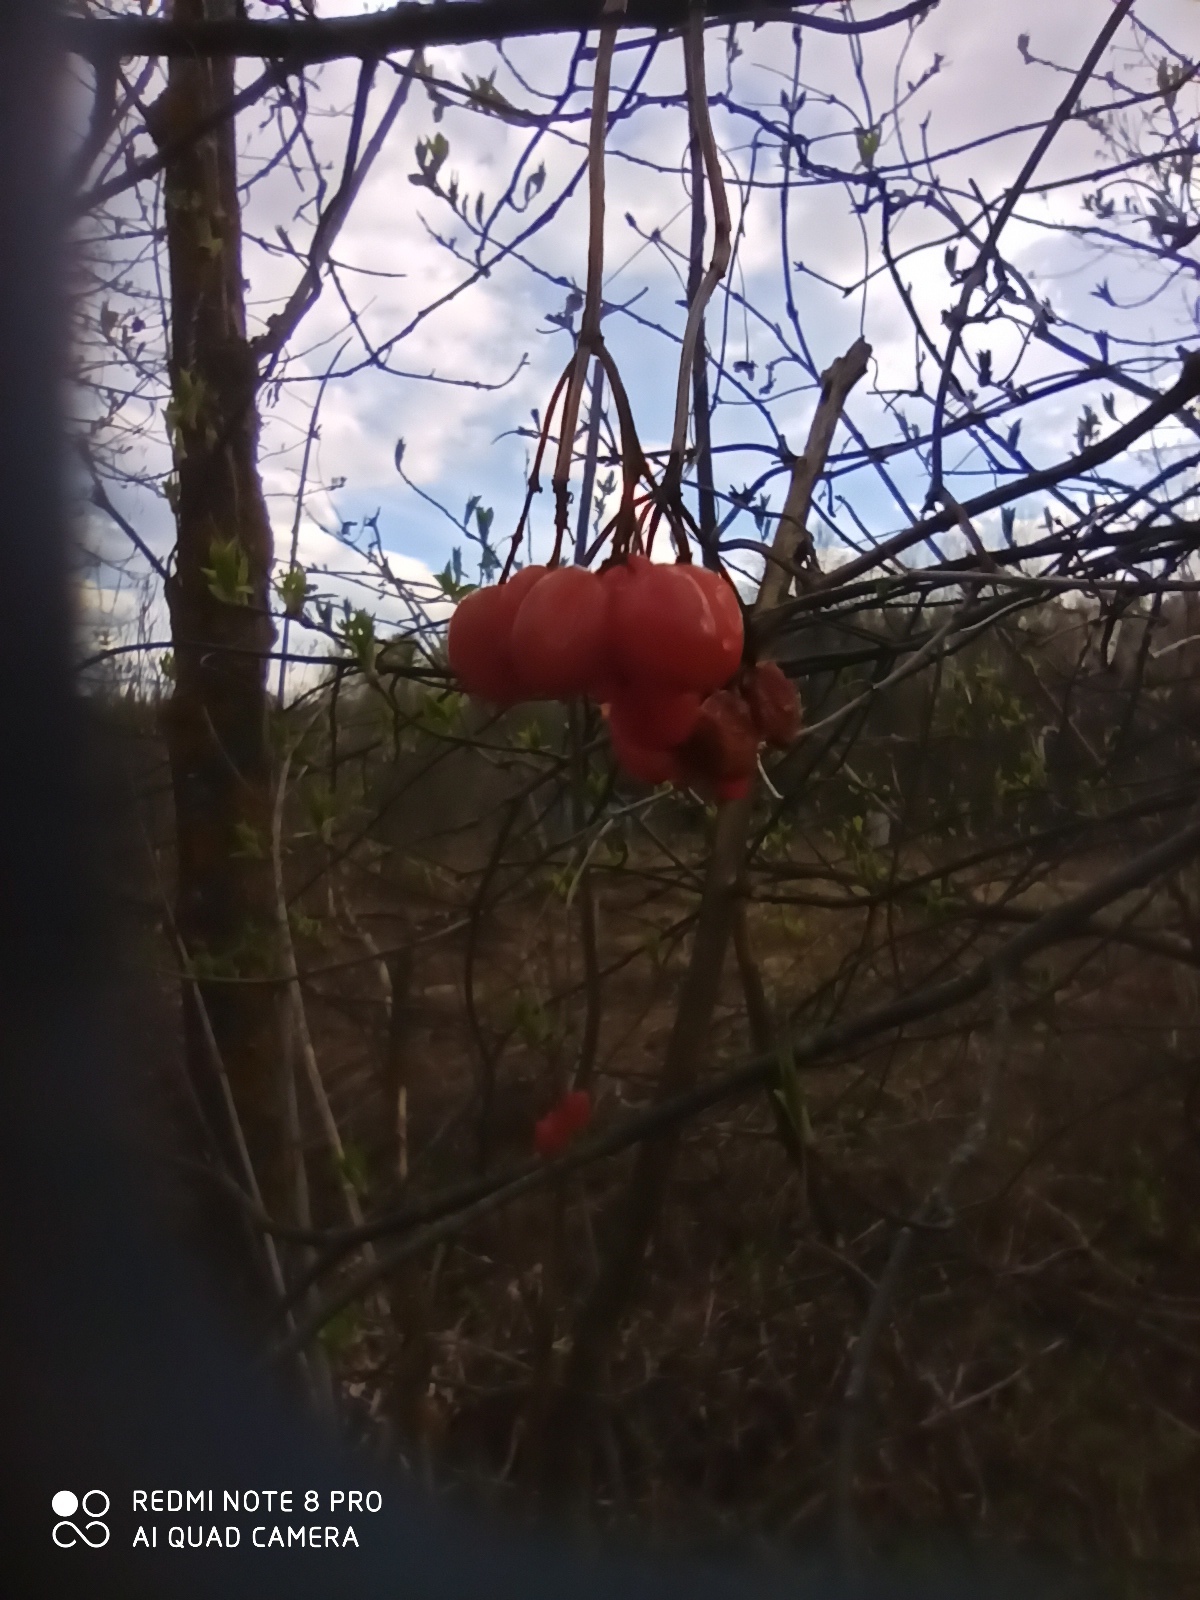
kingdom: Plantae
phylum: Tracheophyta
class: Magnoliopsida
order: Dipsacales
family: Viburnaceae
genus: Viburnum
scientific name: Viburnum opulus
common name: Guelder-rose
